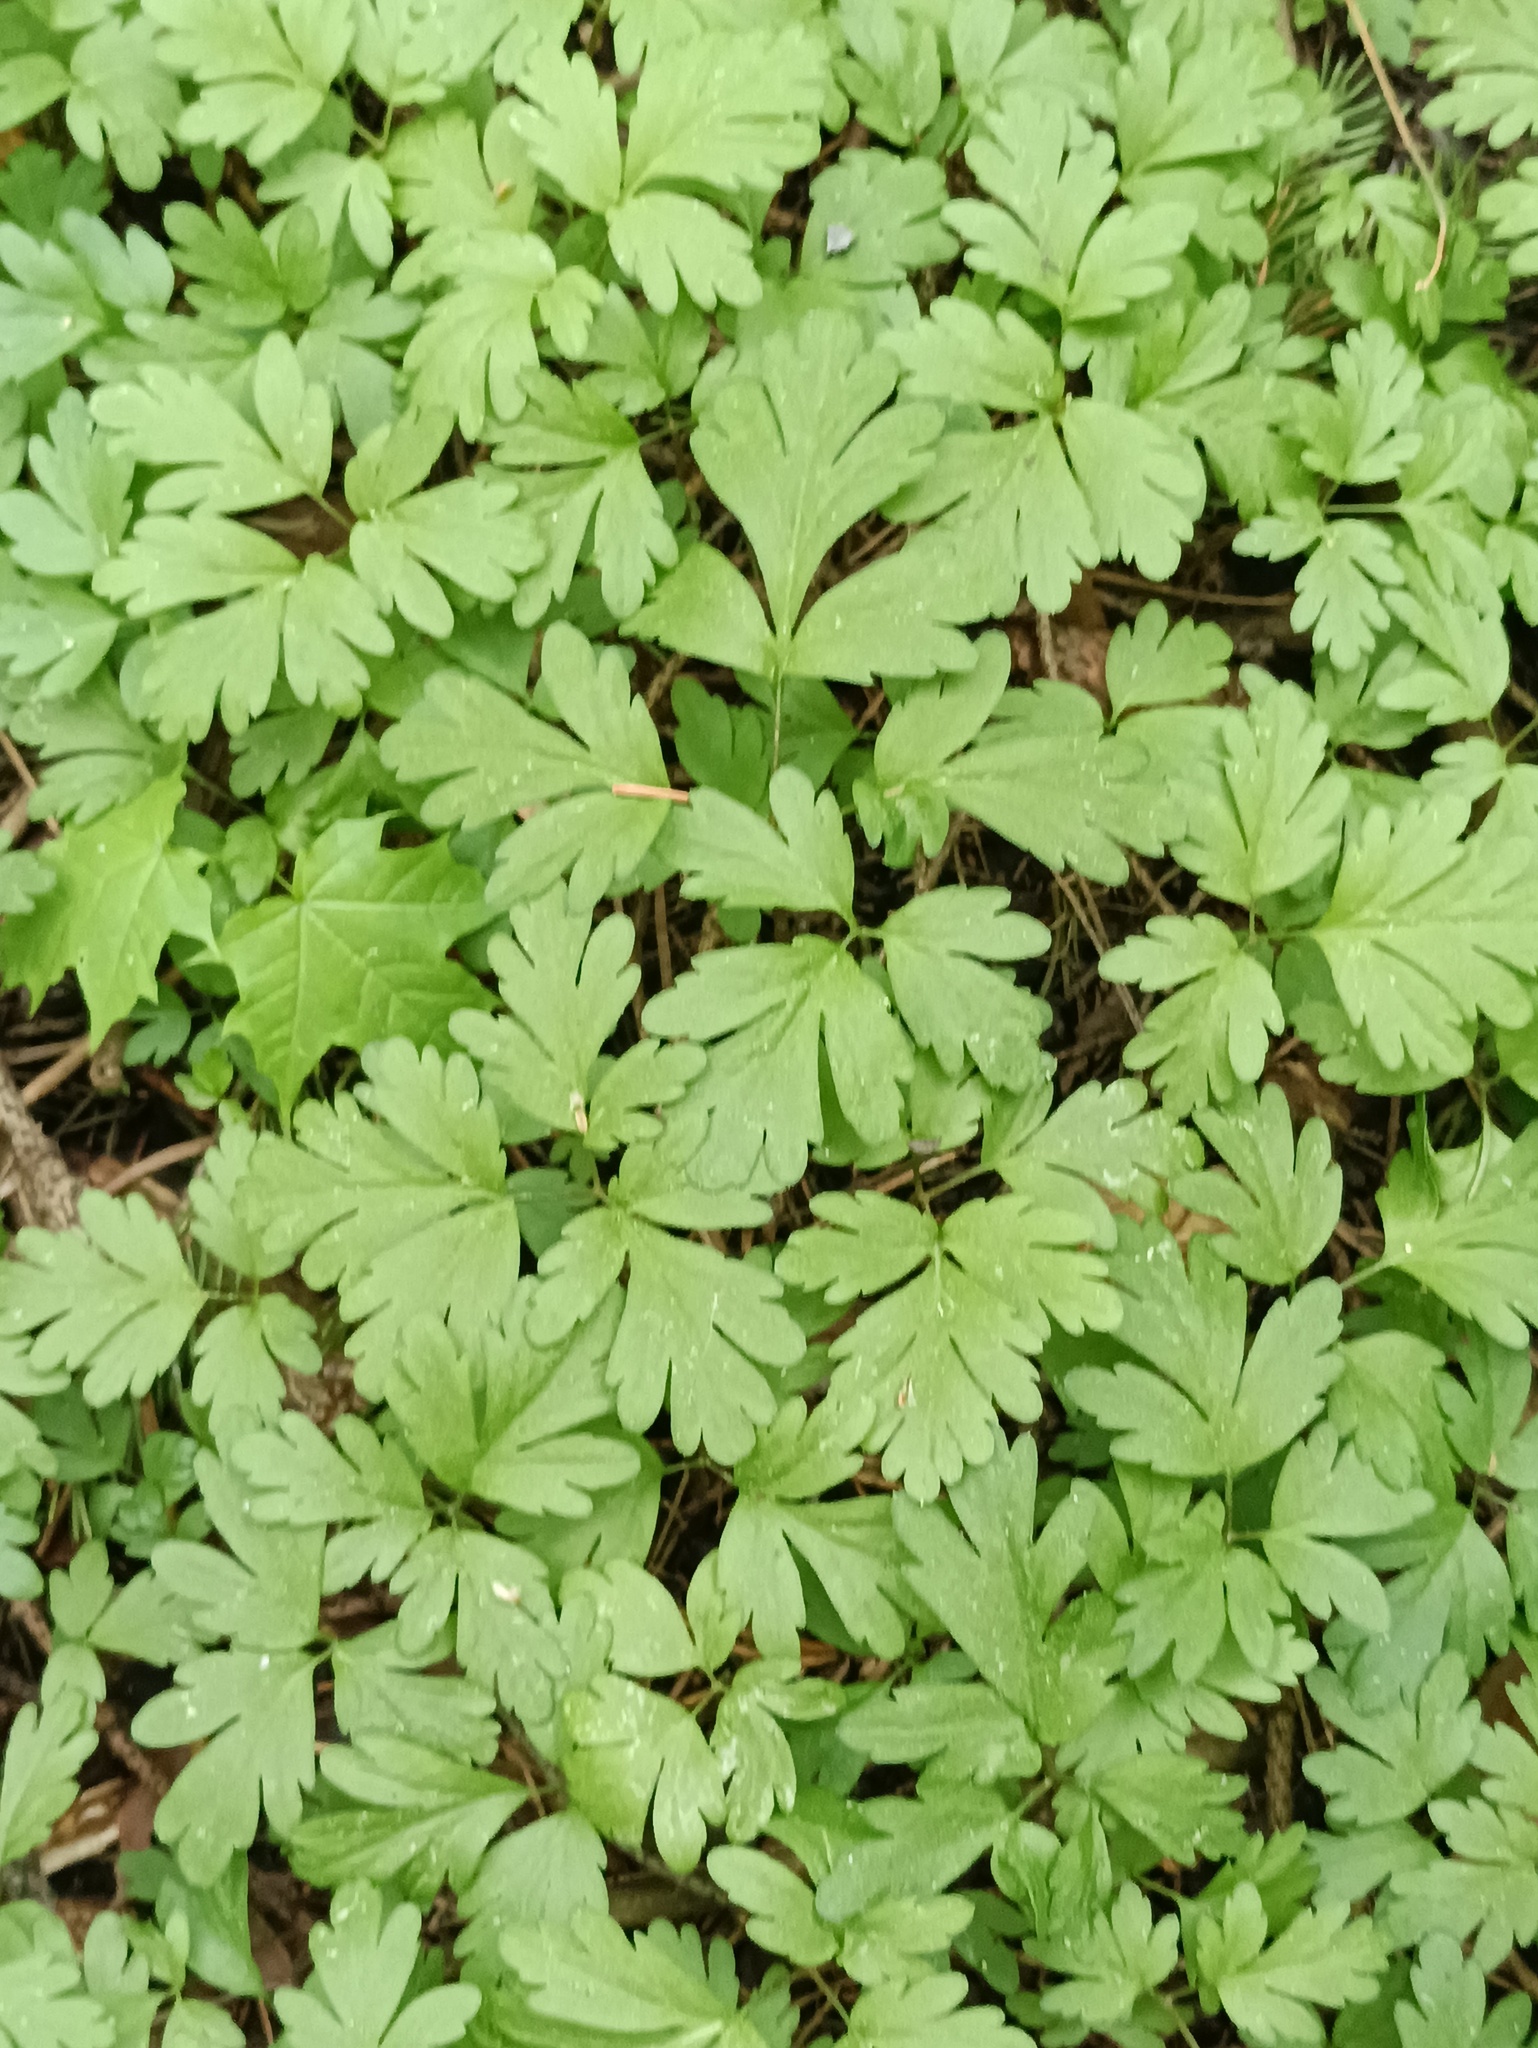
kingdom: Plantae
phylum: Tracheophyta
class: Magnoliopsida
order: Dipsacales
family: Viburnaceae
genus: Adoxa
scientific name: Adoxa moschatellina
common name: Moschatel
